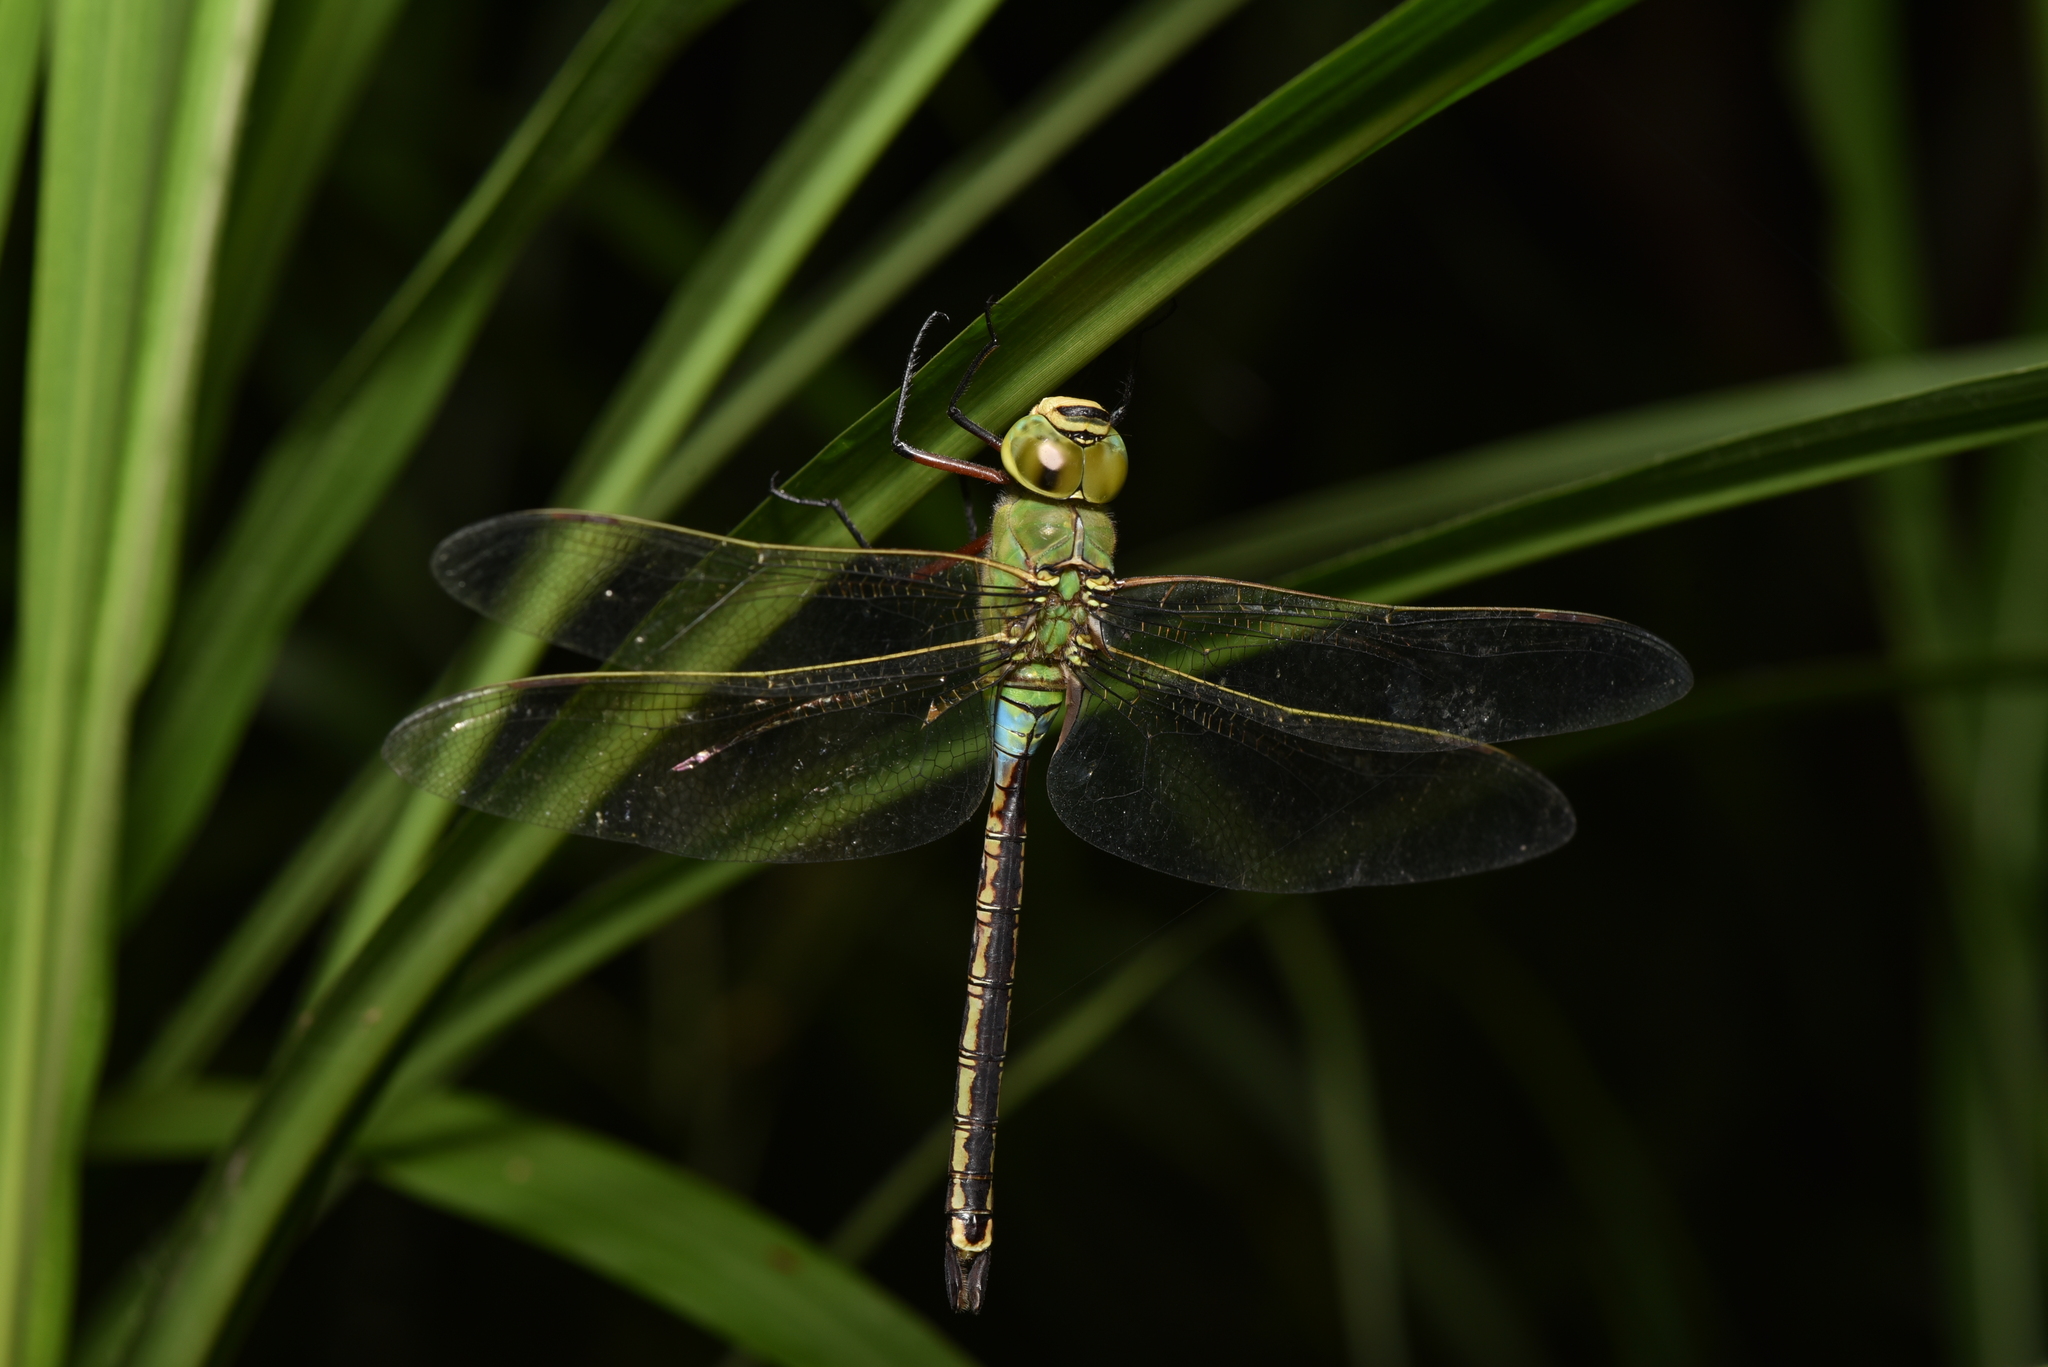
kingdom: Animalia
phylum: Arthropoda
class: Insecta
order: Odonata
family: Aeshnidae
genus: Anax
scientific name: Anax julius
